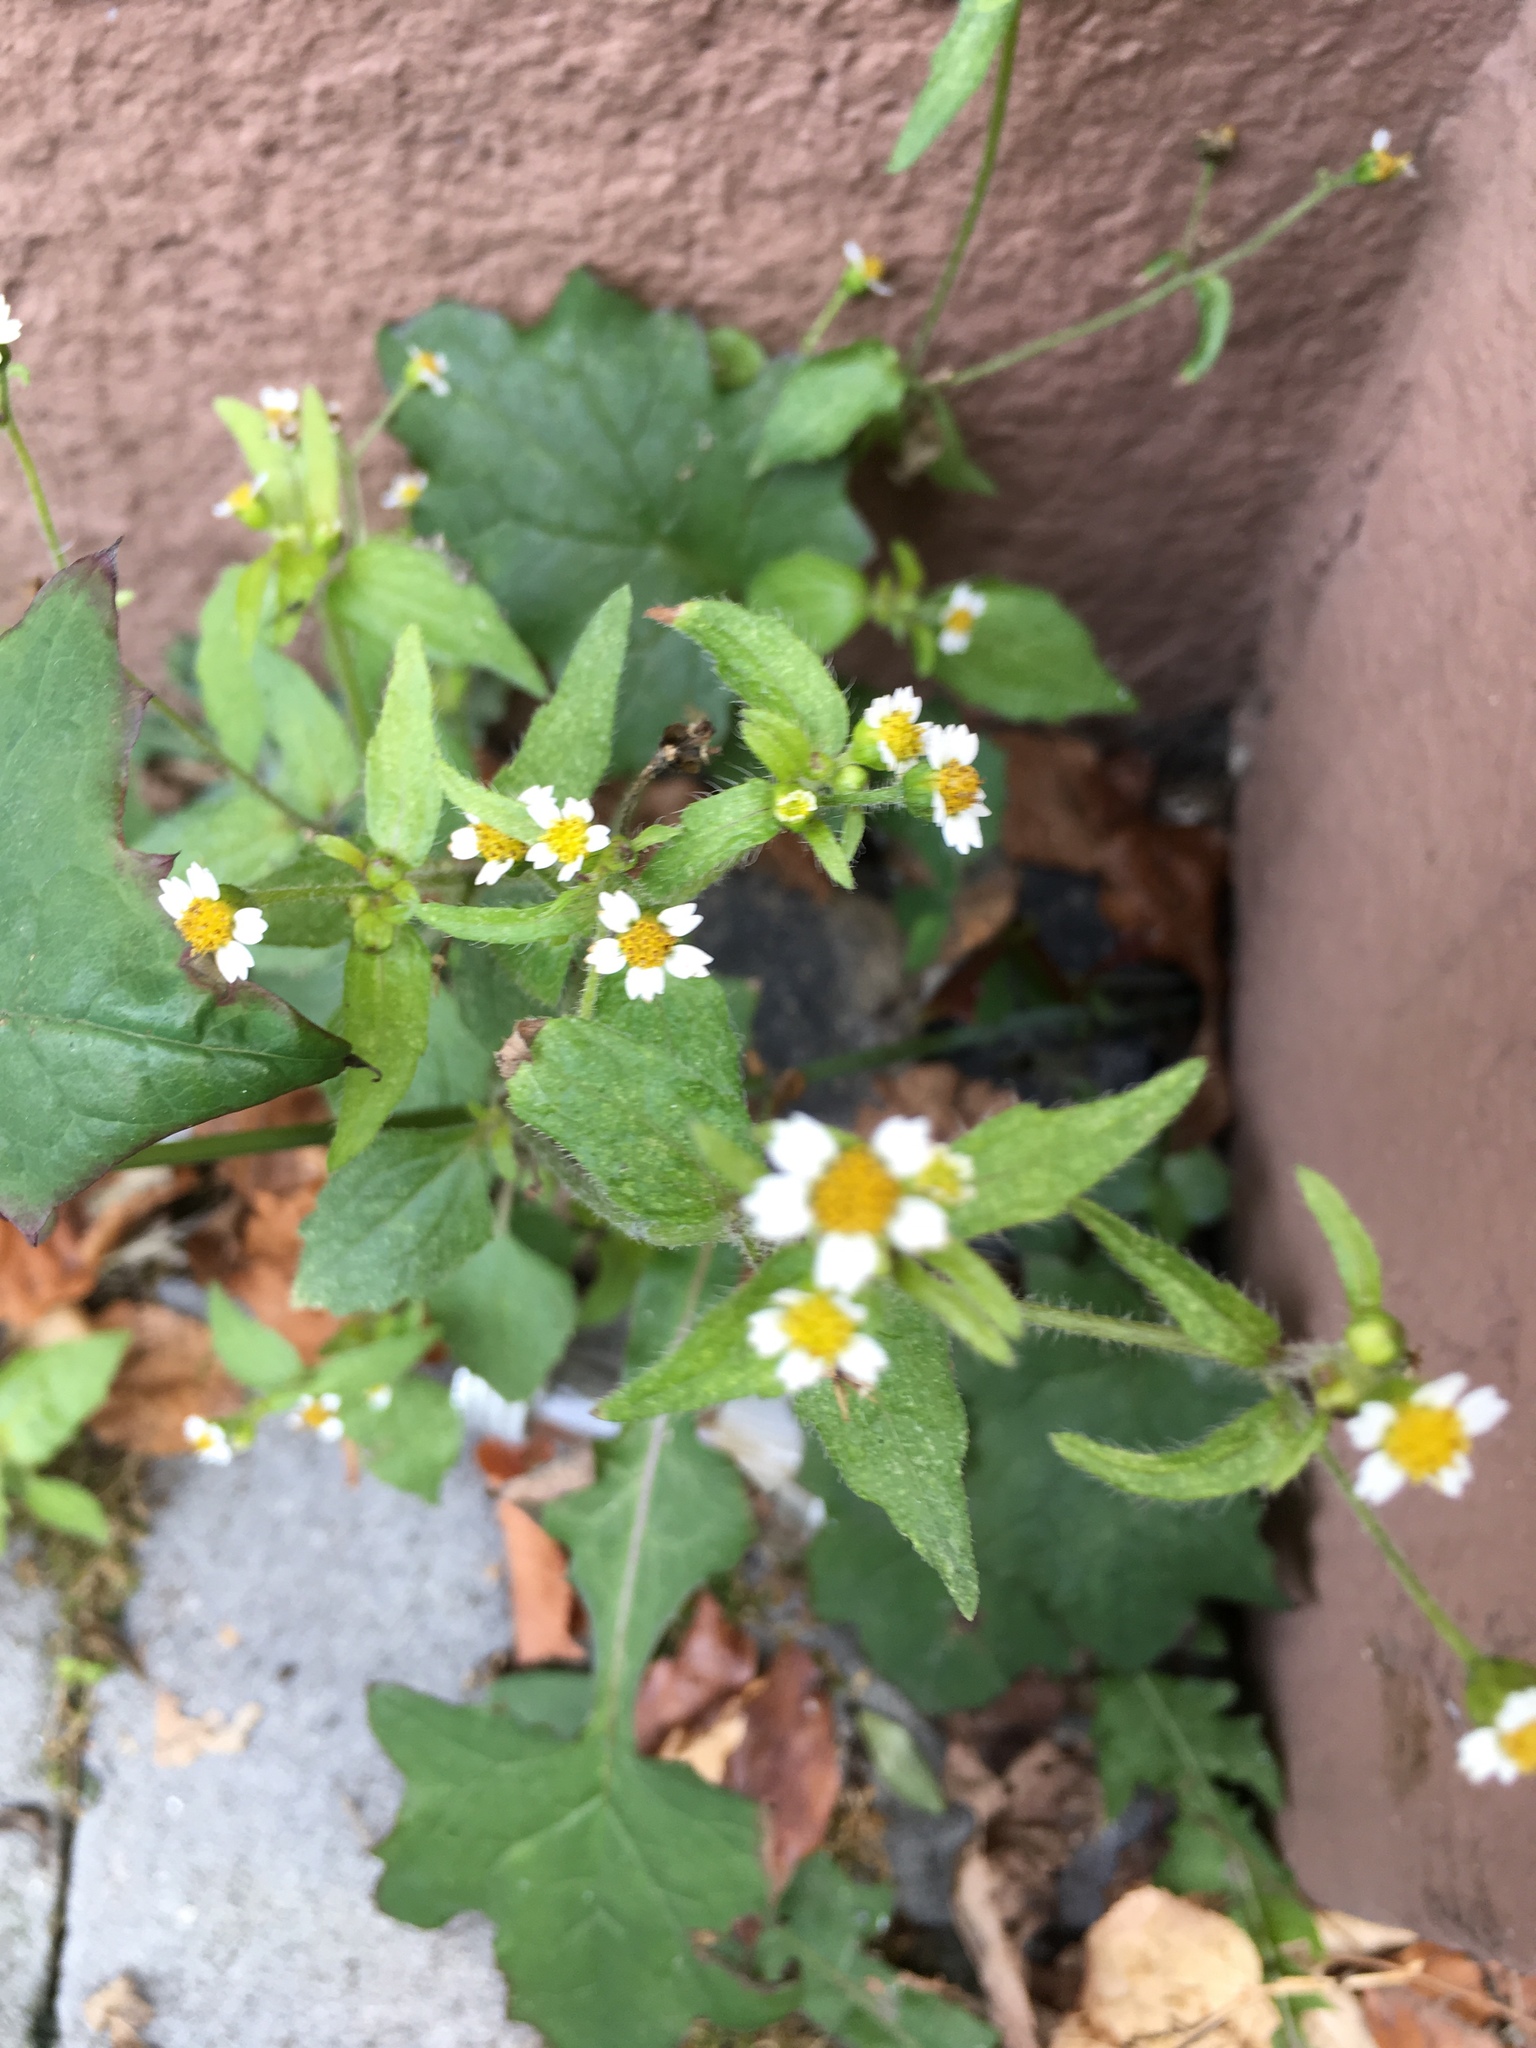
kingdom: Plantae
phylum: Tracheophyta
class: Magnoliopsida
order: Asterales
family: Asteraceae
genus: Galinsoga
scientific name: Galinsoga quadriradiata
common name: Shaggy soldier
